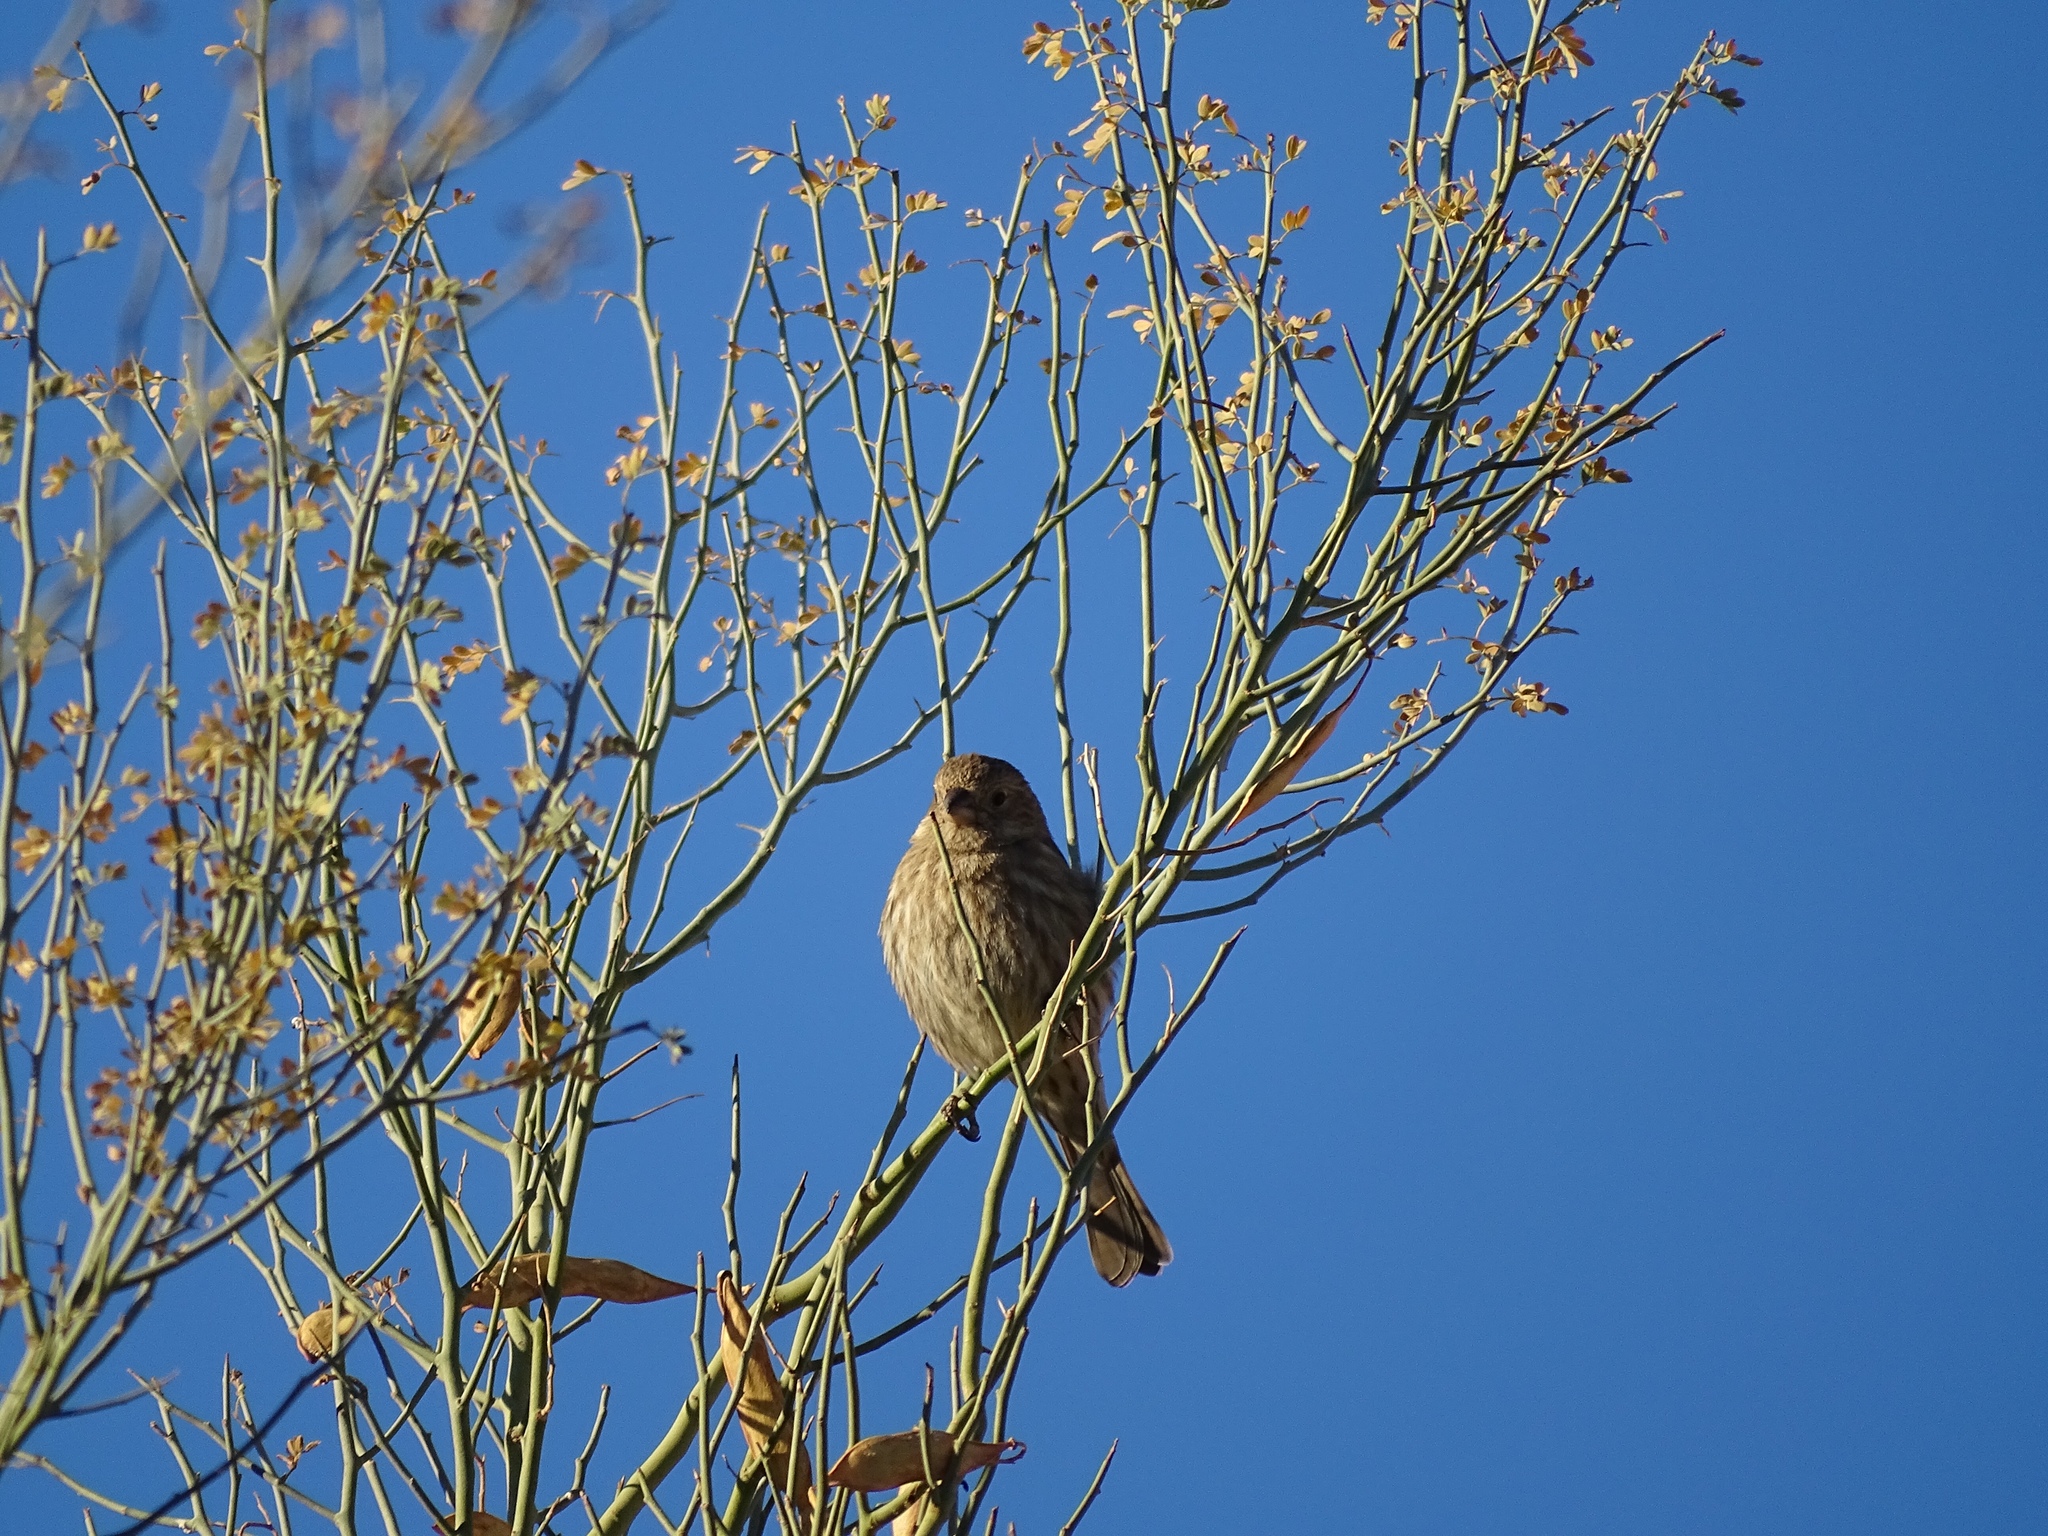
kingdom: Animalia
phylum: Chordata
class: Aves
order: Passeriformes
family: Fringillidae
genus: Haemorhous
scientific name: Haemorhous mexicanus
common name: House finch
